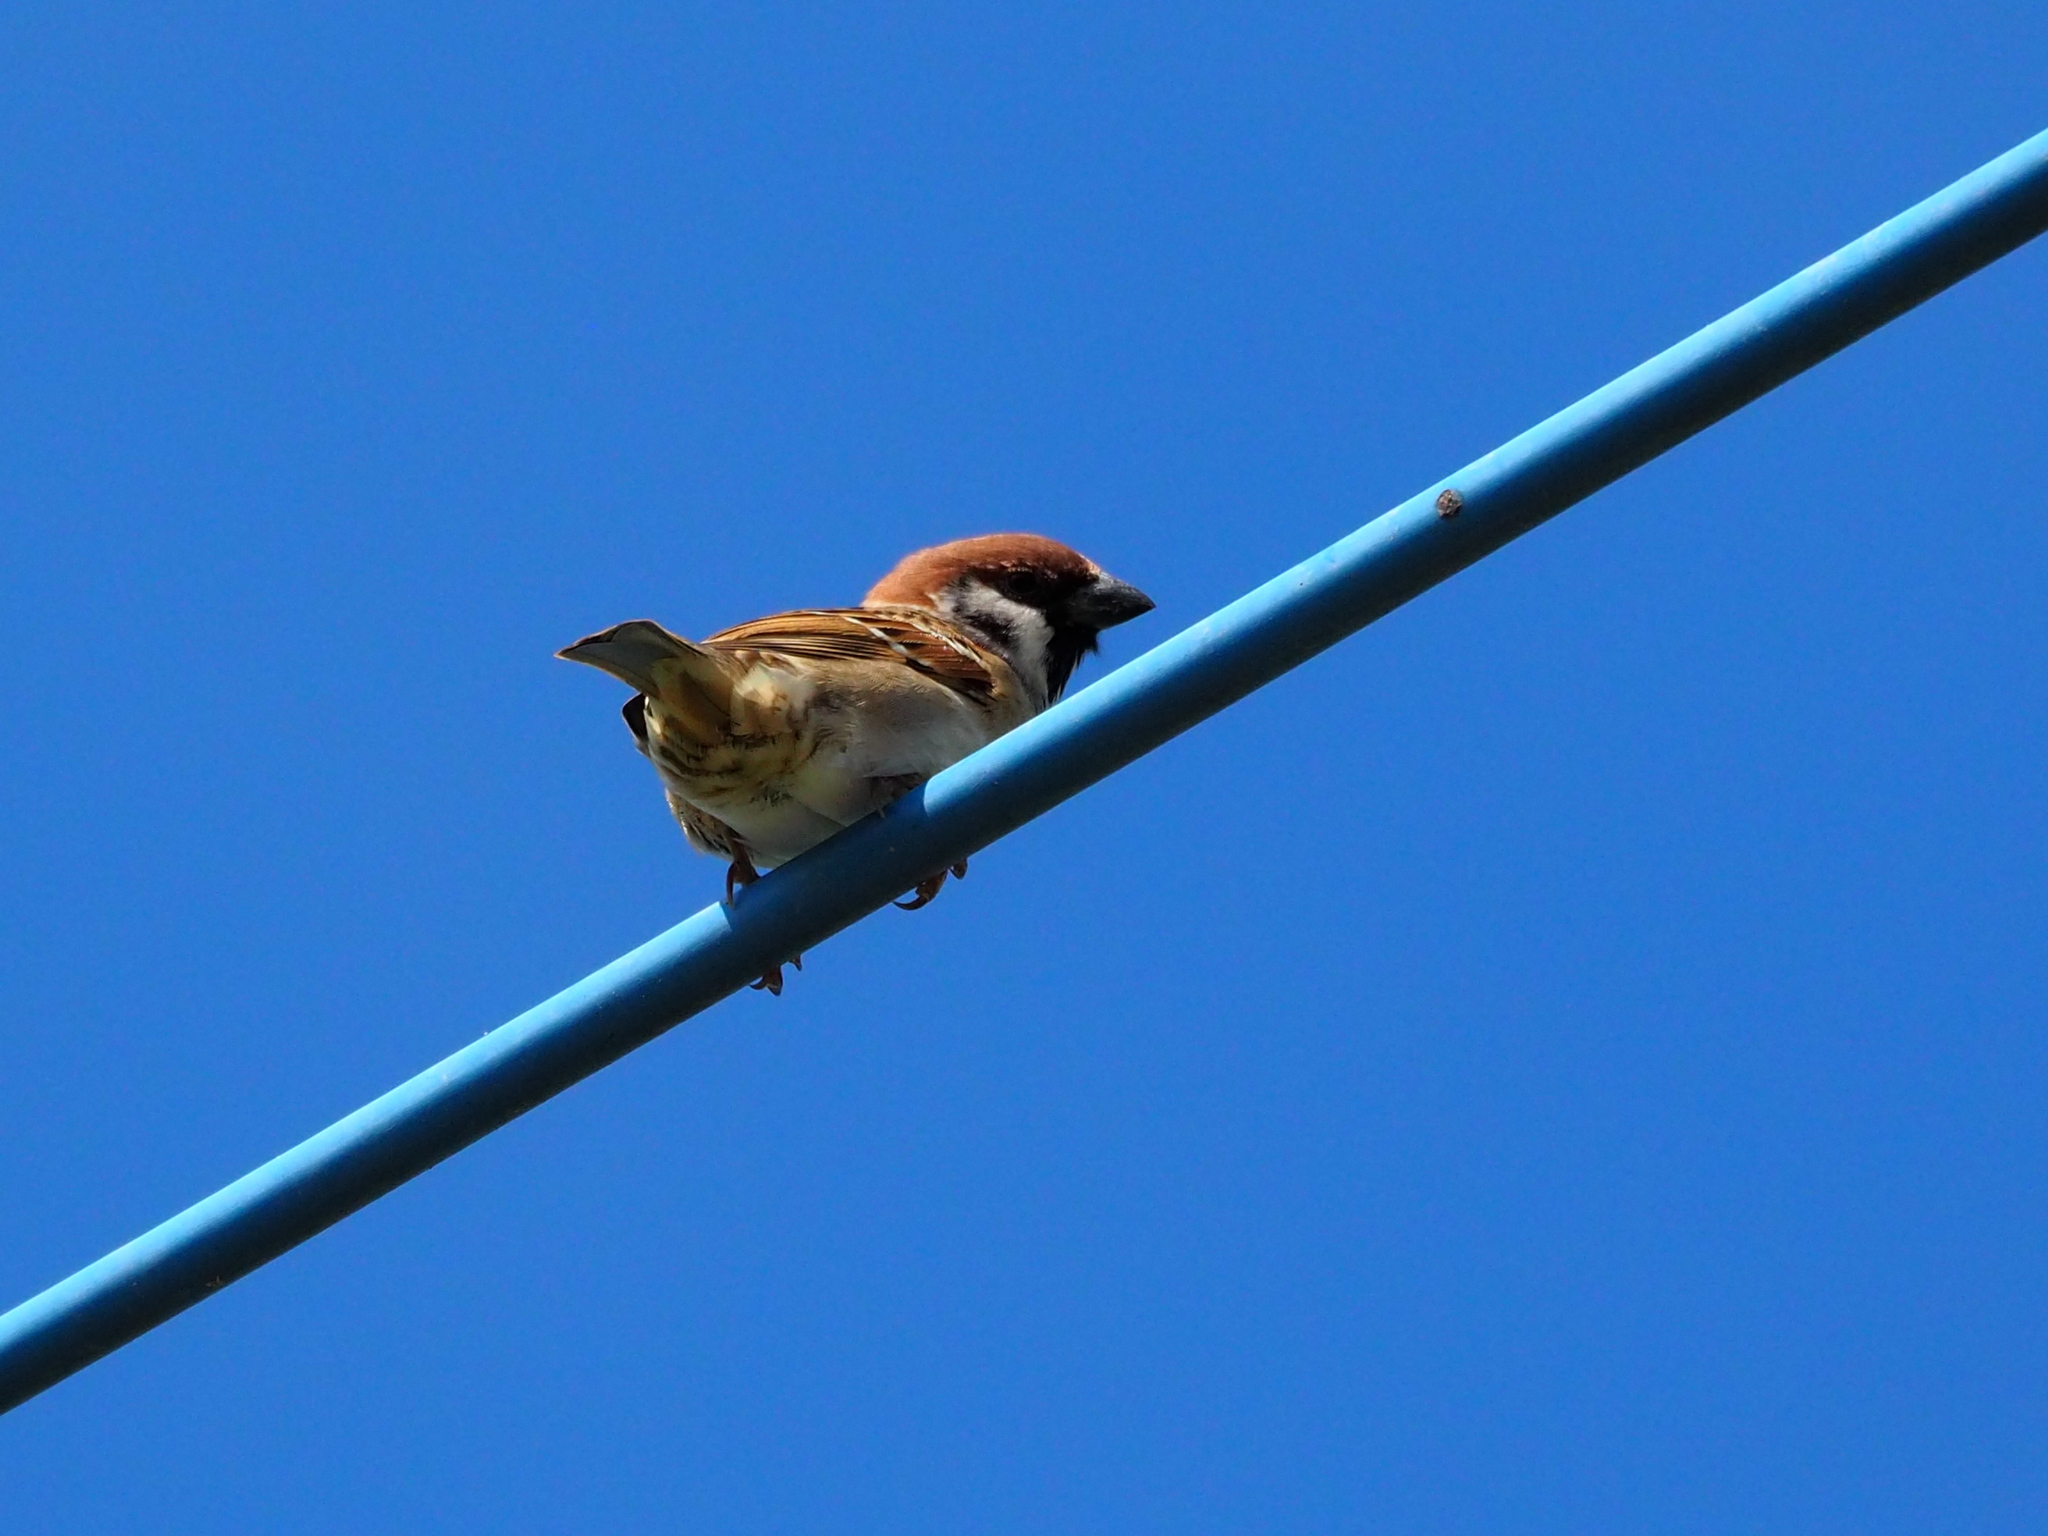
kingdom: Animalia
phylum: Chordata
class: Aves
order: Passeriformes
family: Passeridae
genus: Passer
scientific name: Passer montanus
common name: Eurasian tree sparrow
